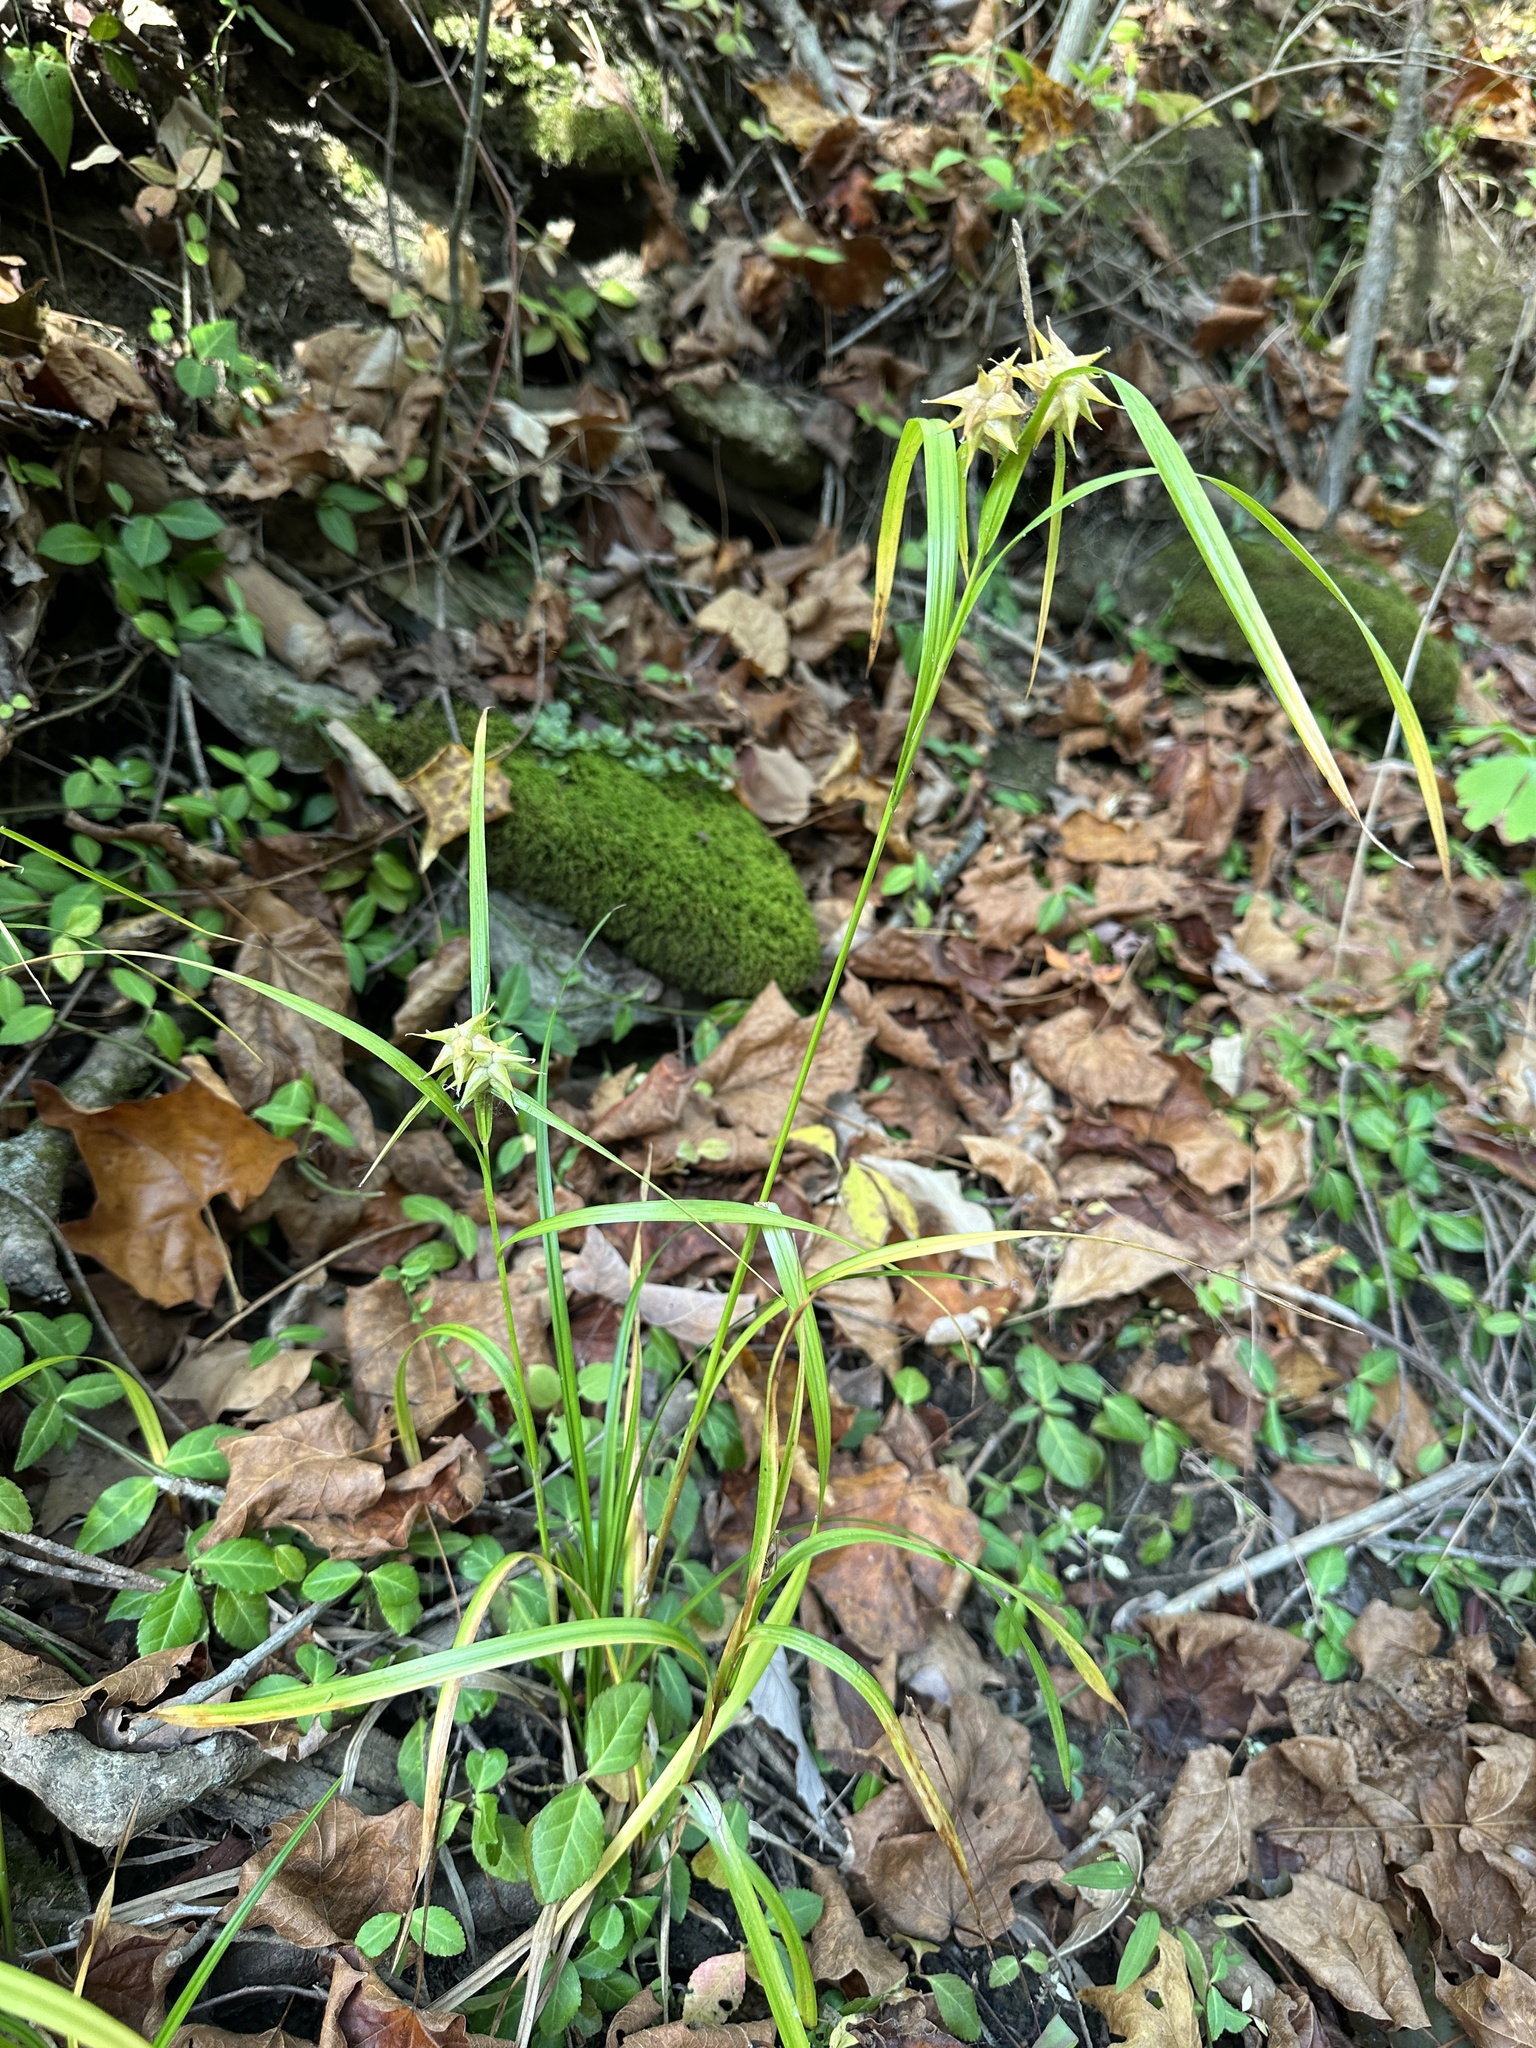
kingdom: Plantae
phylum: Tracheophyta
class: Liliopsida
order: Poales
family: Cyperaceae
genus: Carex
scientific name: Carex grayi
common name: Asa gray's sedge
